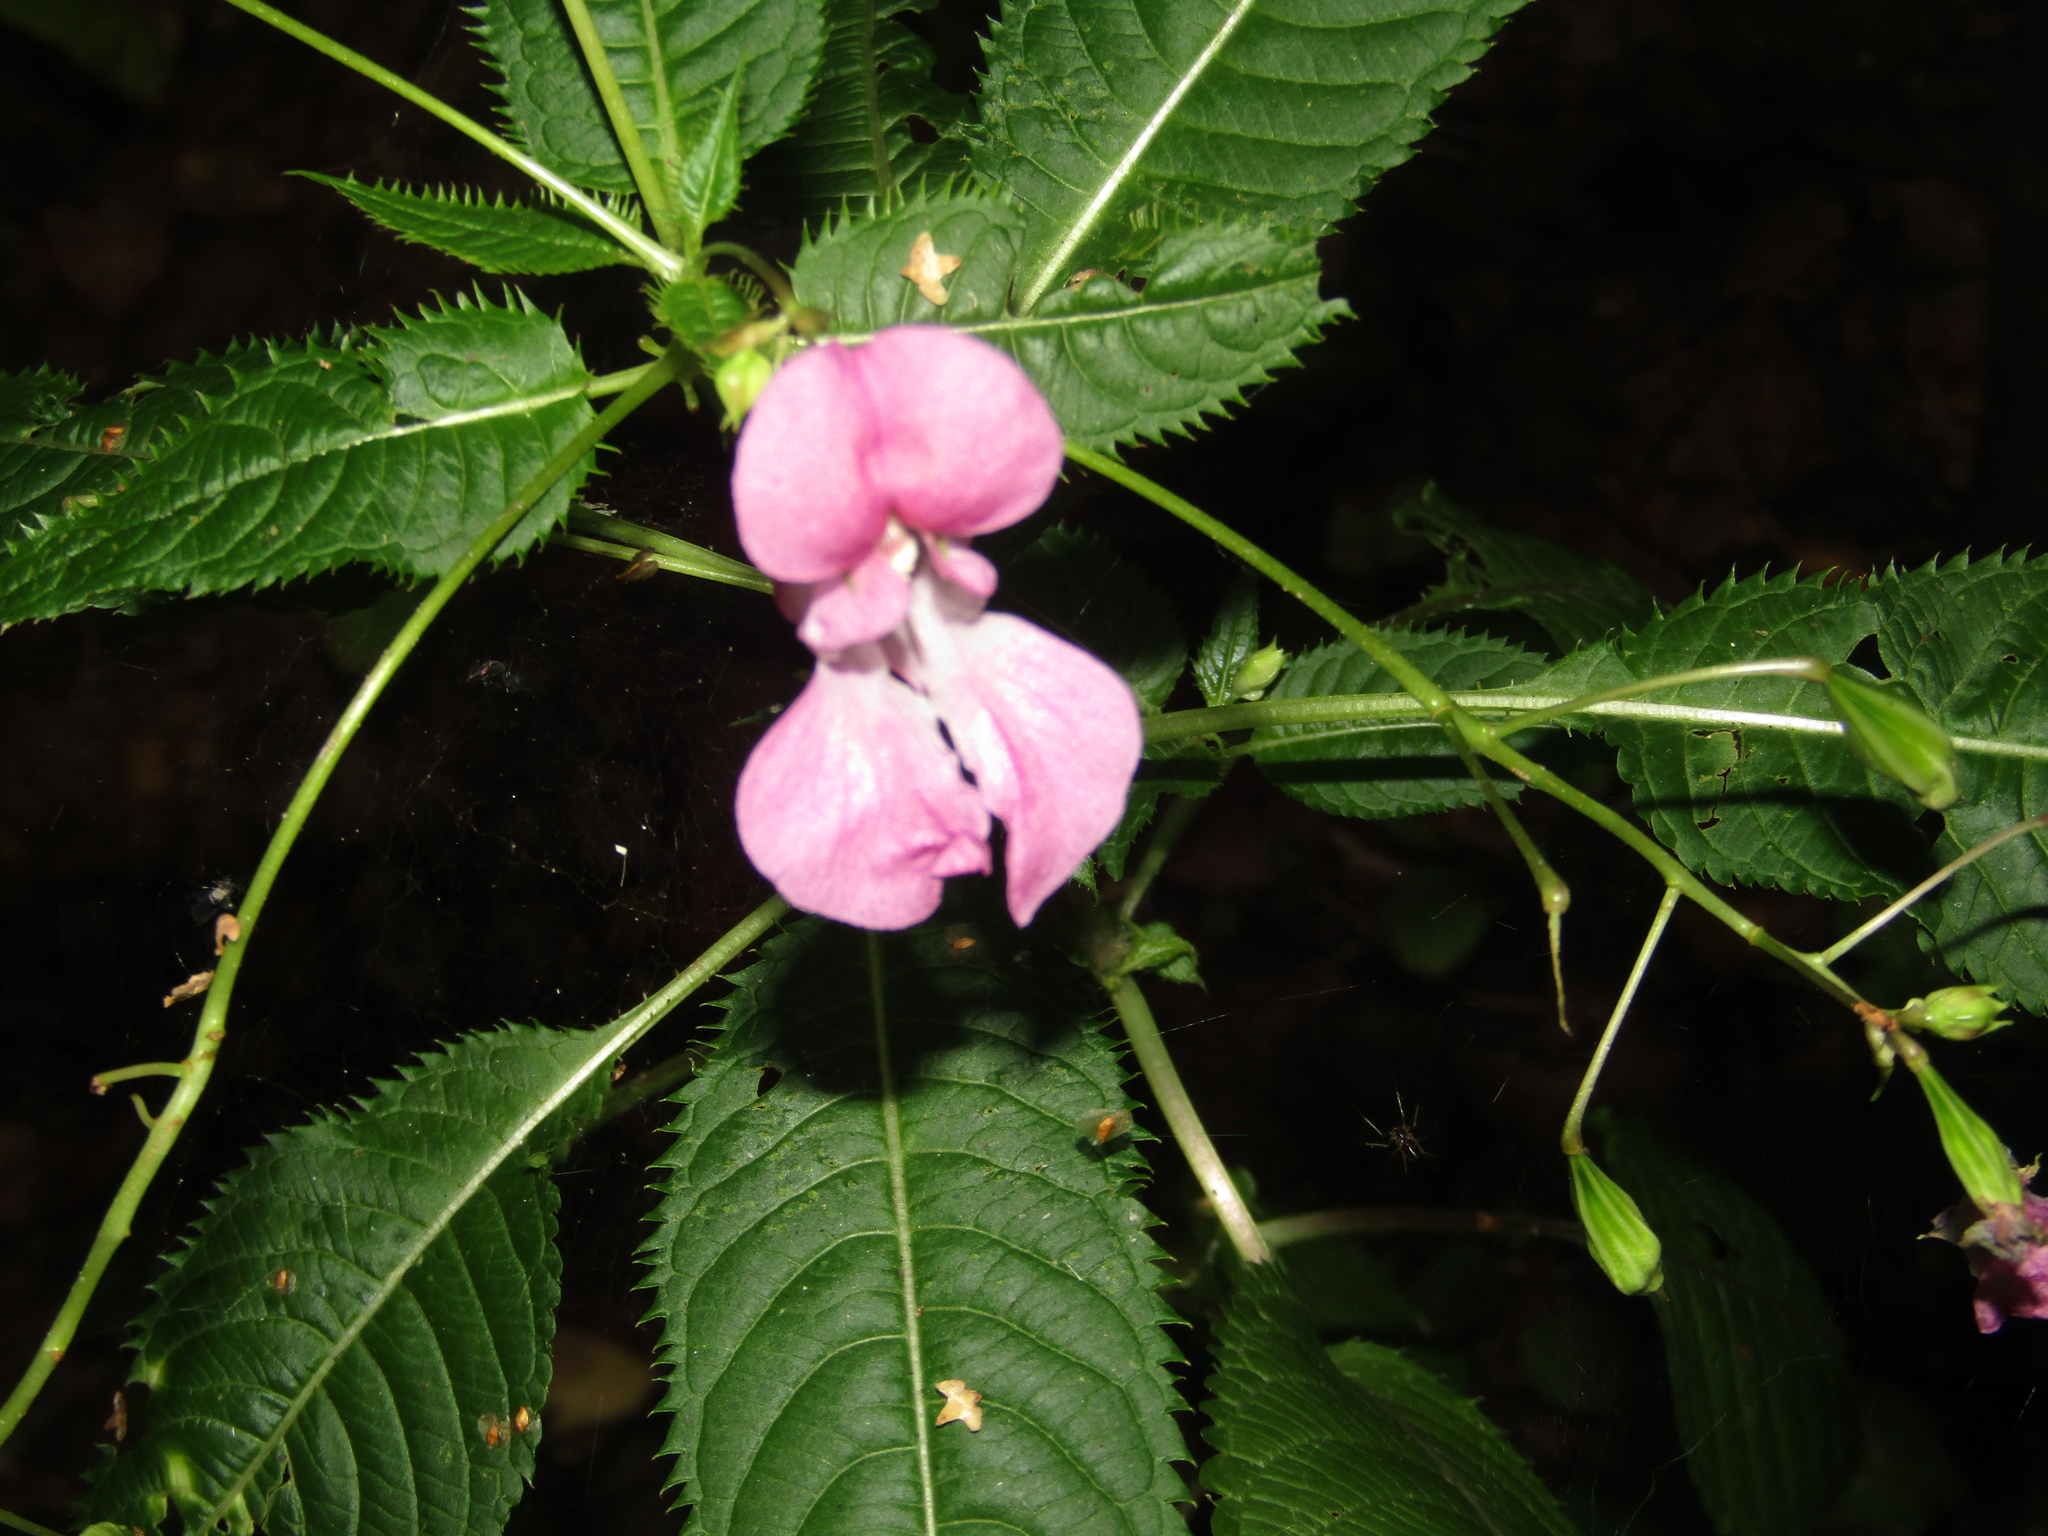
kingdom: Plantae
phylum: Tracheophyta
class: Magnoliopsida
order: Ericales
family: Balsaminaceae
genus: Impatiens
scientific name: Impatiens glandulifera
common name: Himalayan balsam
